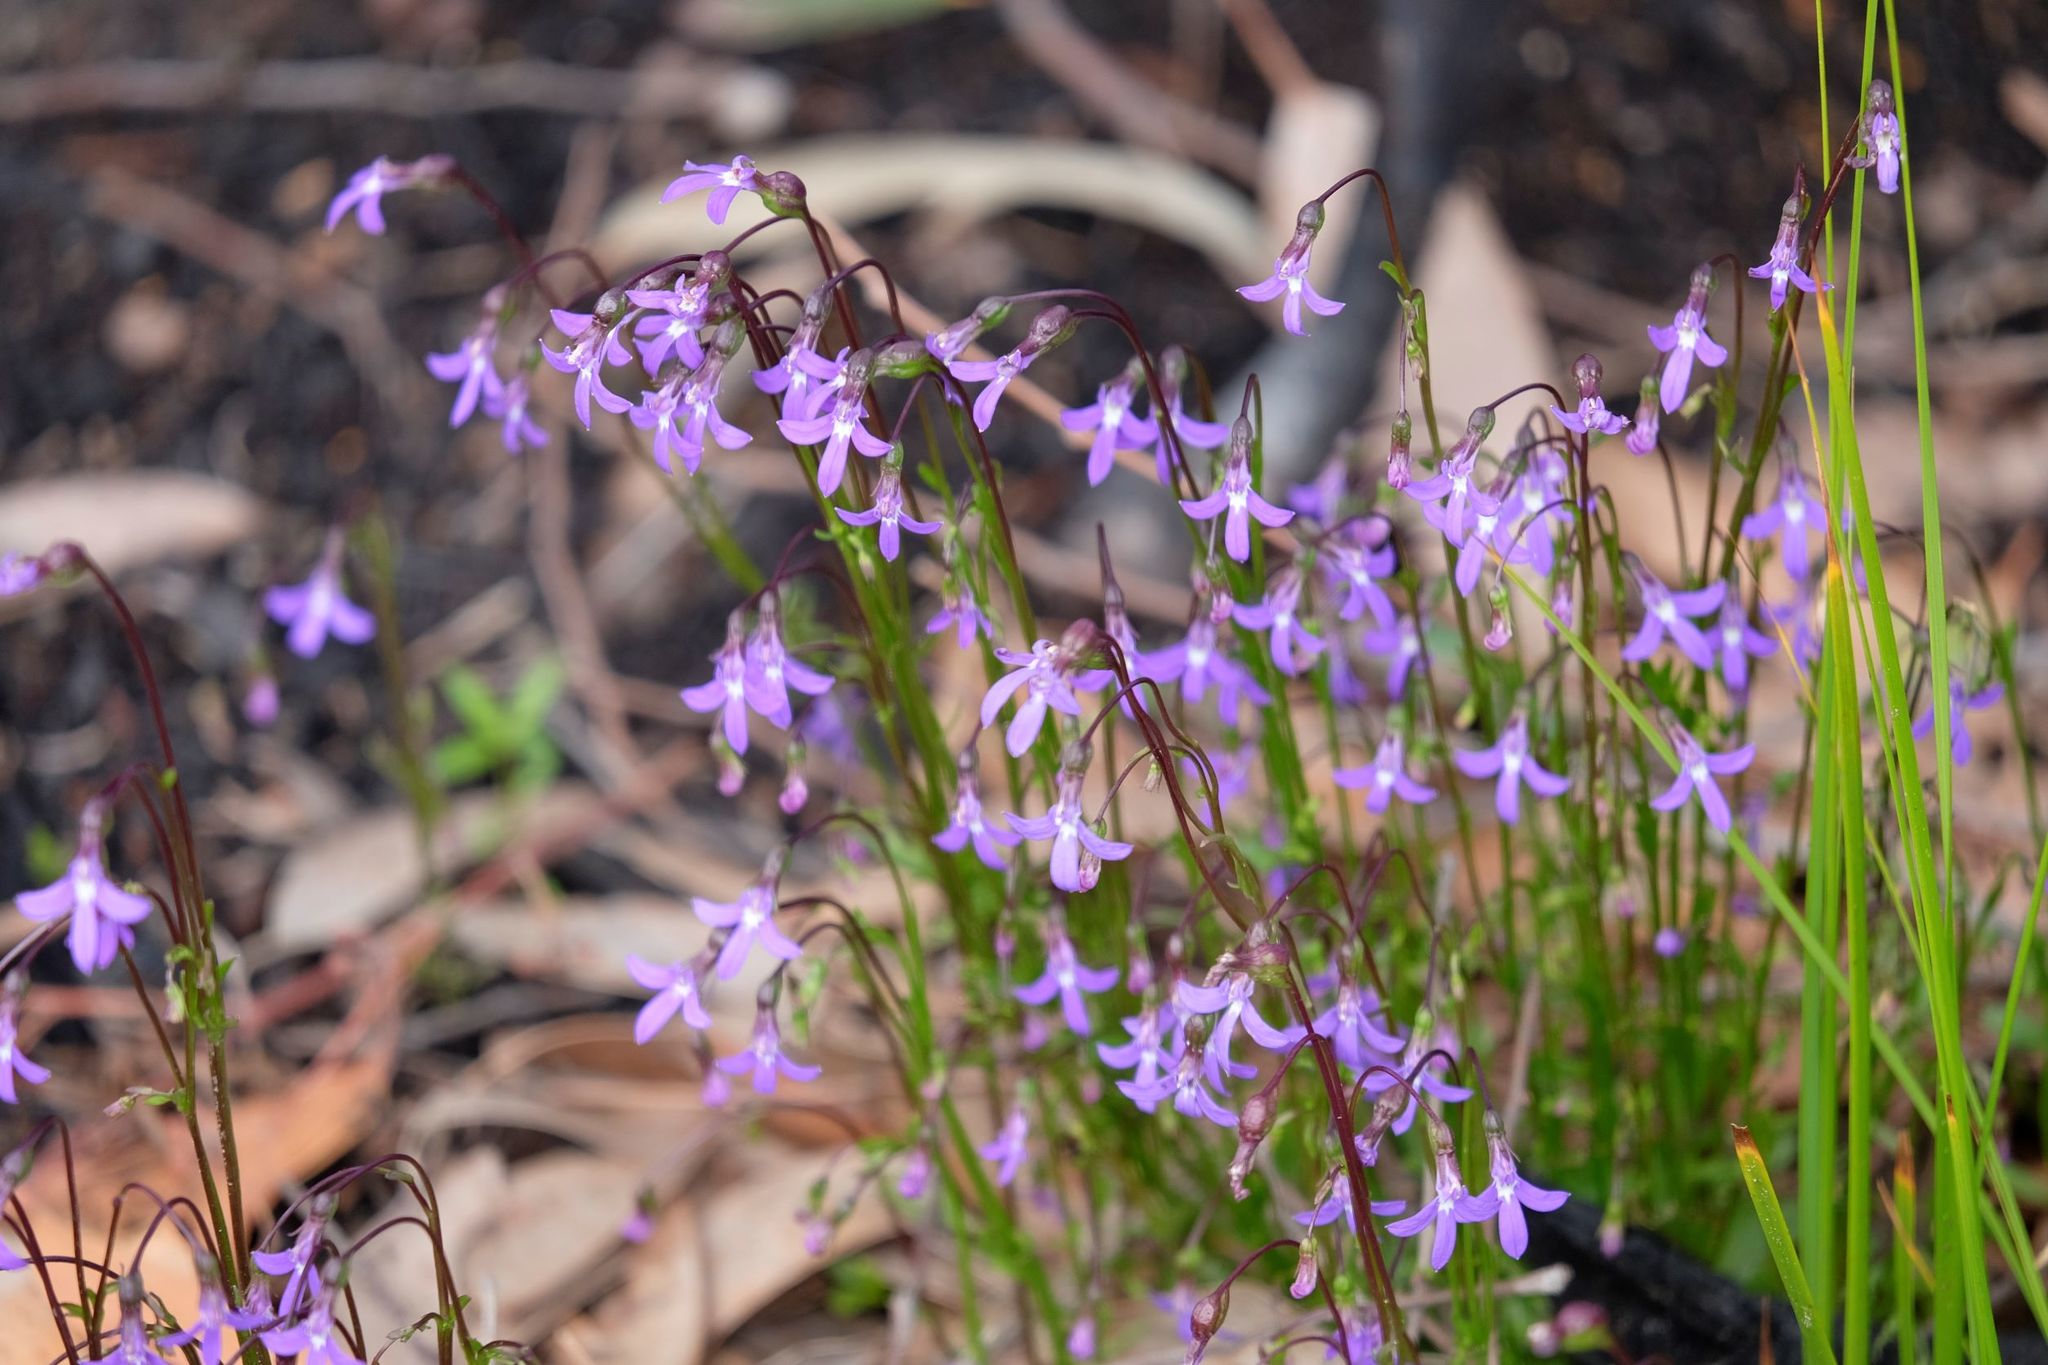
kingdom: Plantae
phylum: Tracheophyta
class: Magnoliopsida
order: Asterales
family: Campanulaceae
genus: Lobelia
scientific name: Lobelia rhombifolia
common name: Tufted lobelia
